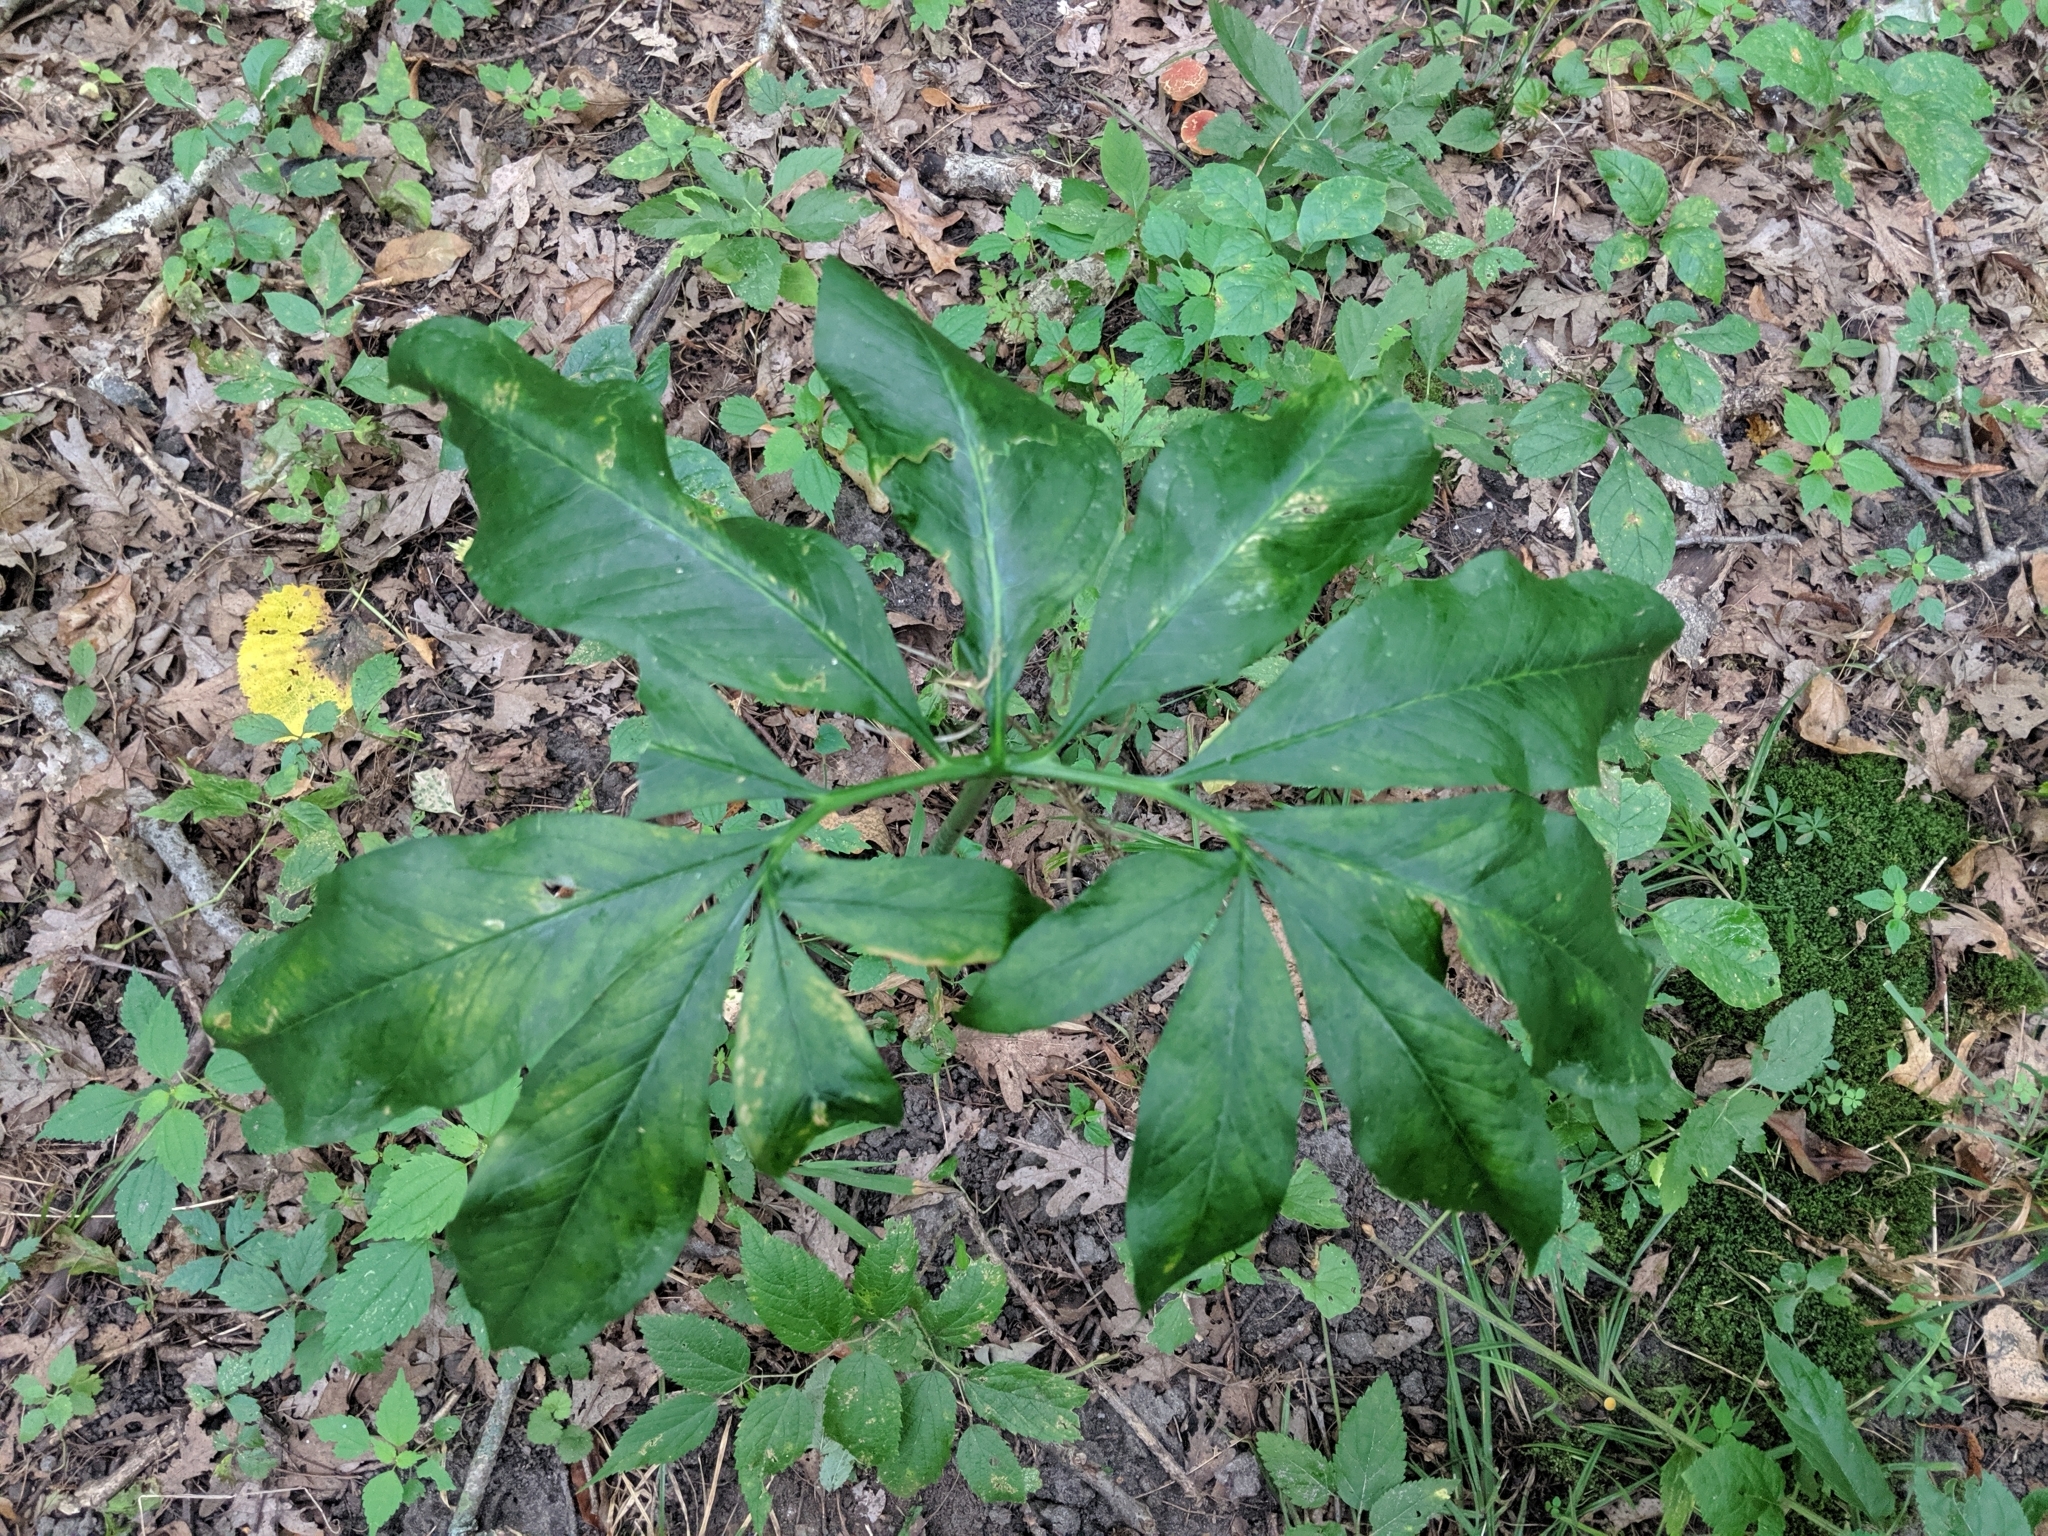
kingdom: Plantae
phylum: Tracheophyta
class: Liliopsida
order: Alismatales
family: Araceae
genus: Arisaema
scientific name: Arisaema dracontium
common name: Dragon-arum
